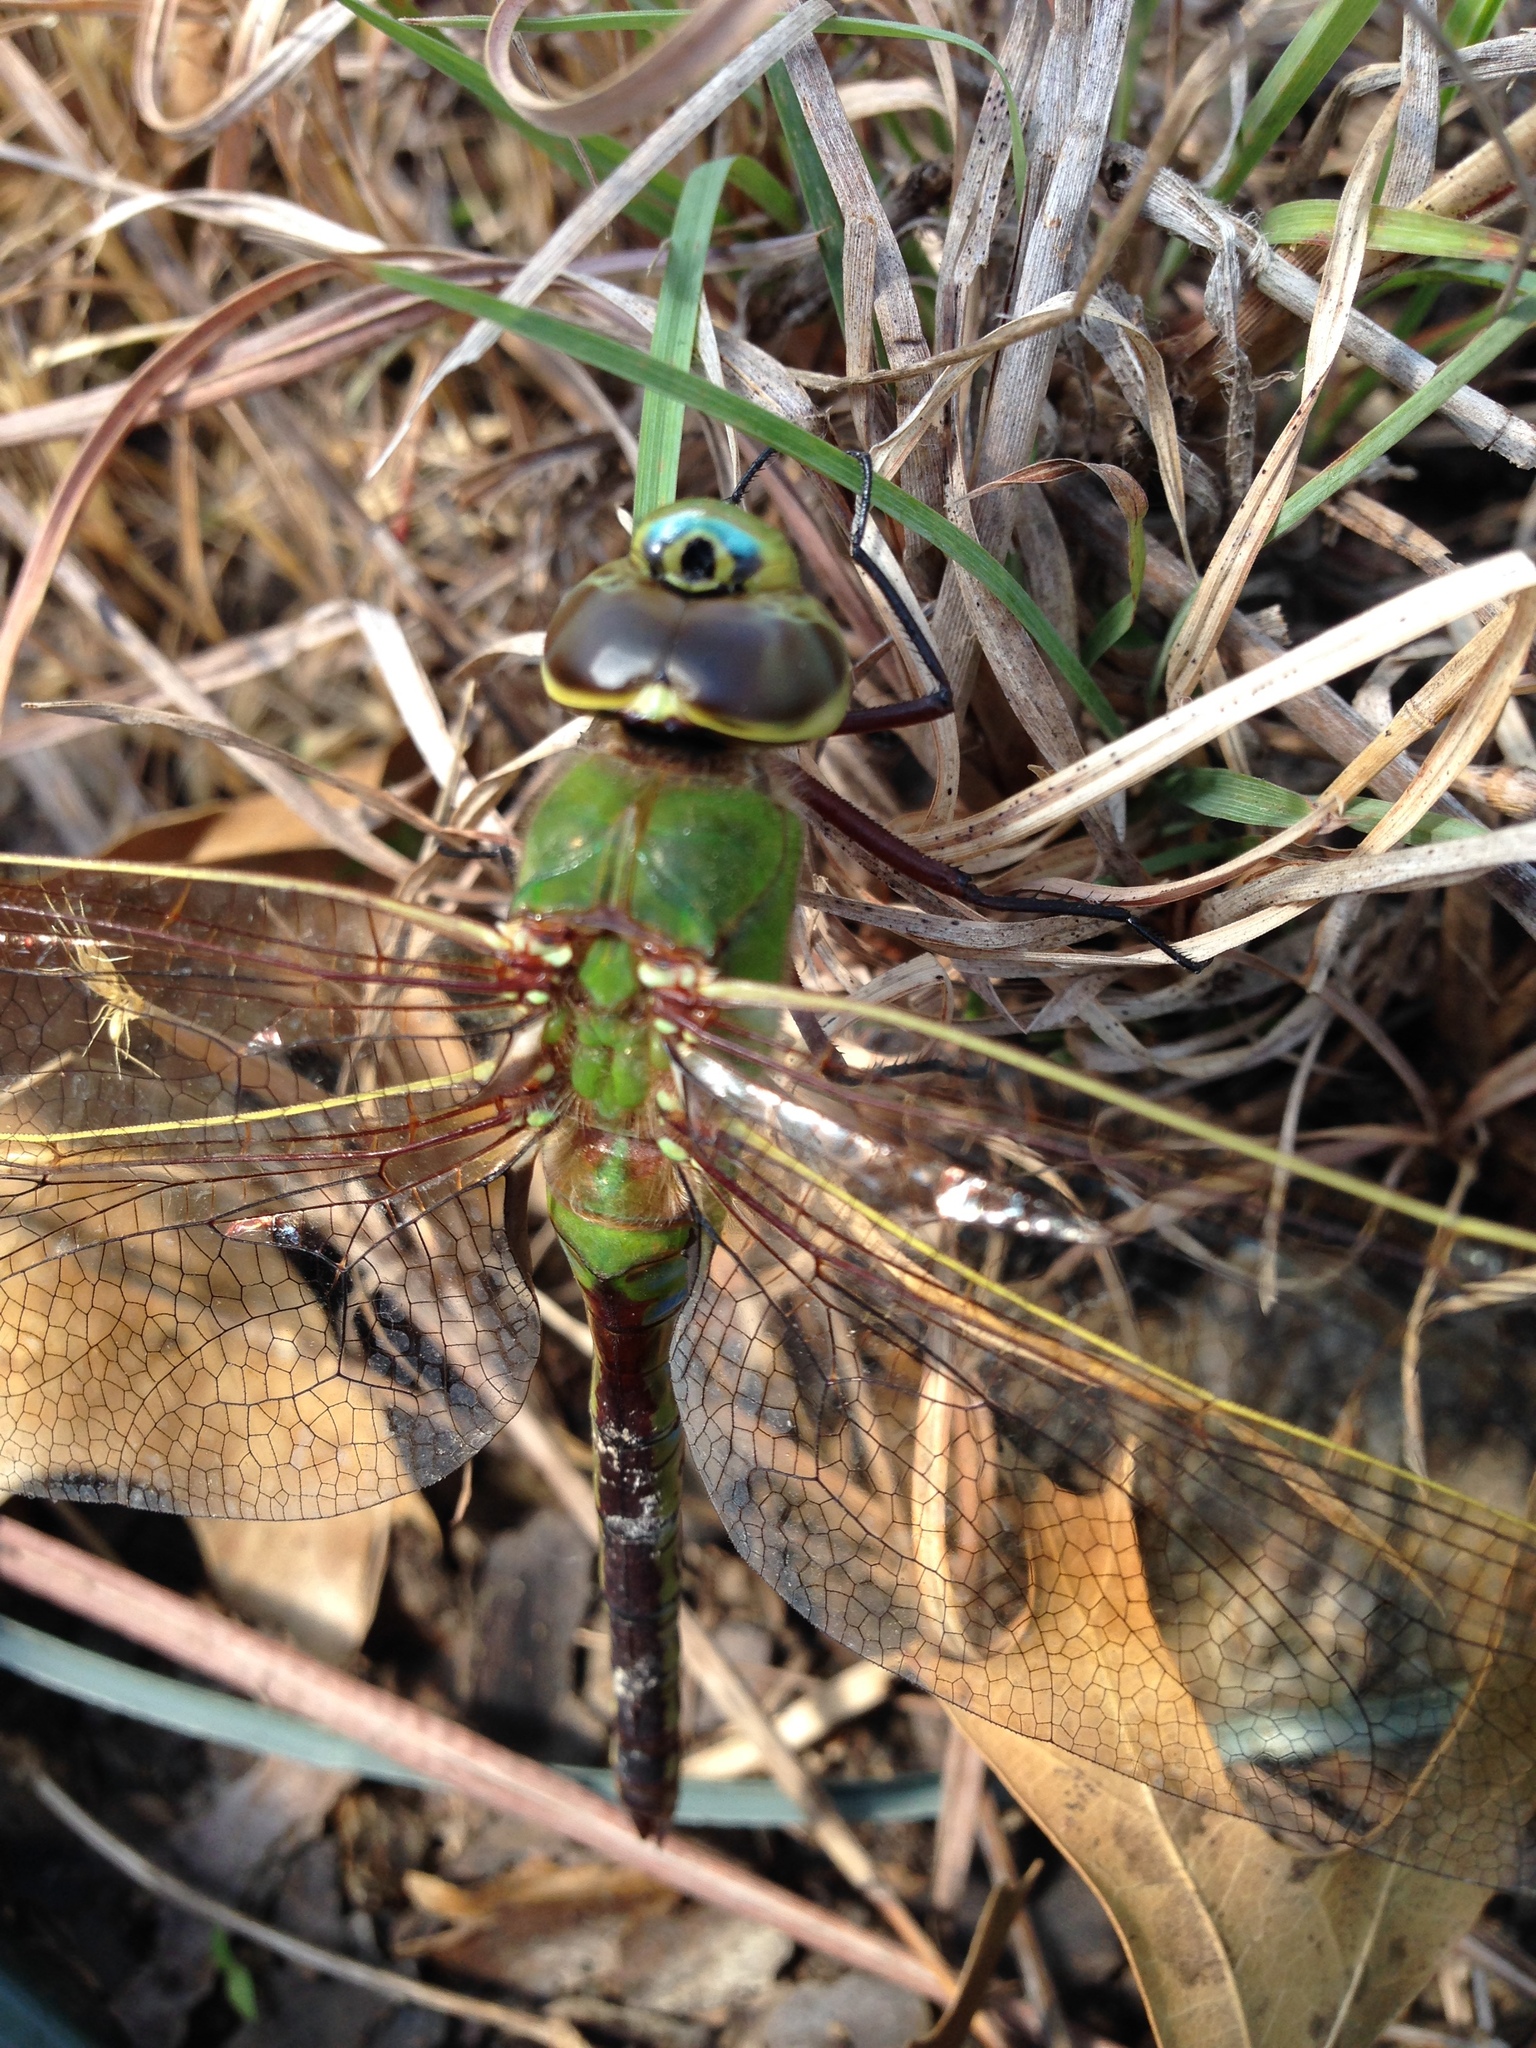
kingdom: Animalia
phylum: Arthropoda
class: Insecta
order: Odonata
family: Aeshnidae
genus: Anax
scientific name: Anax junius
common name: Common green darner
